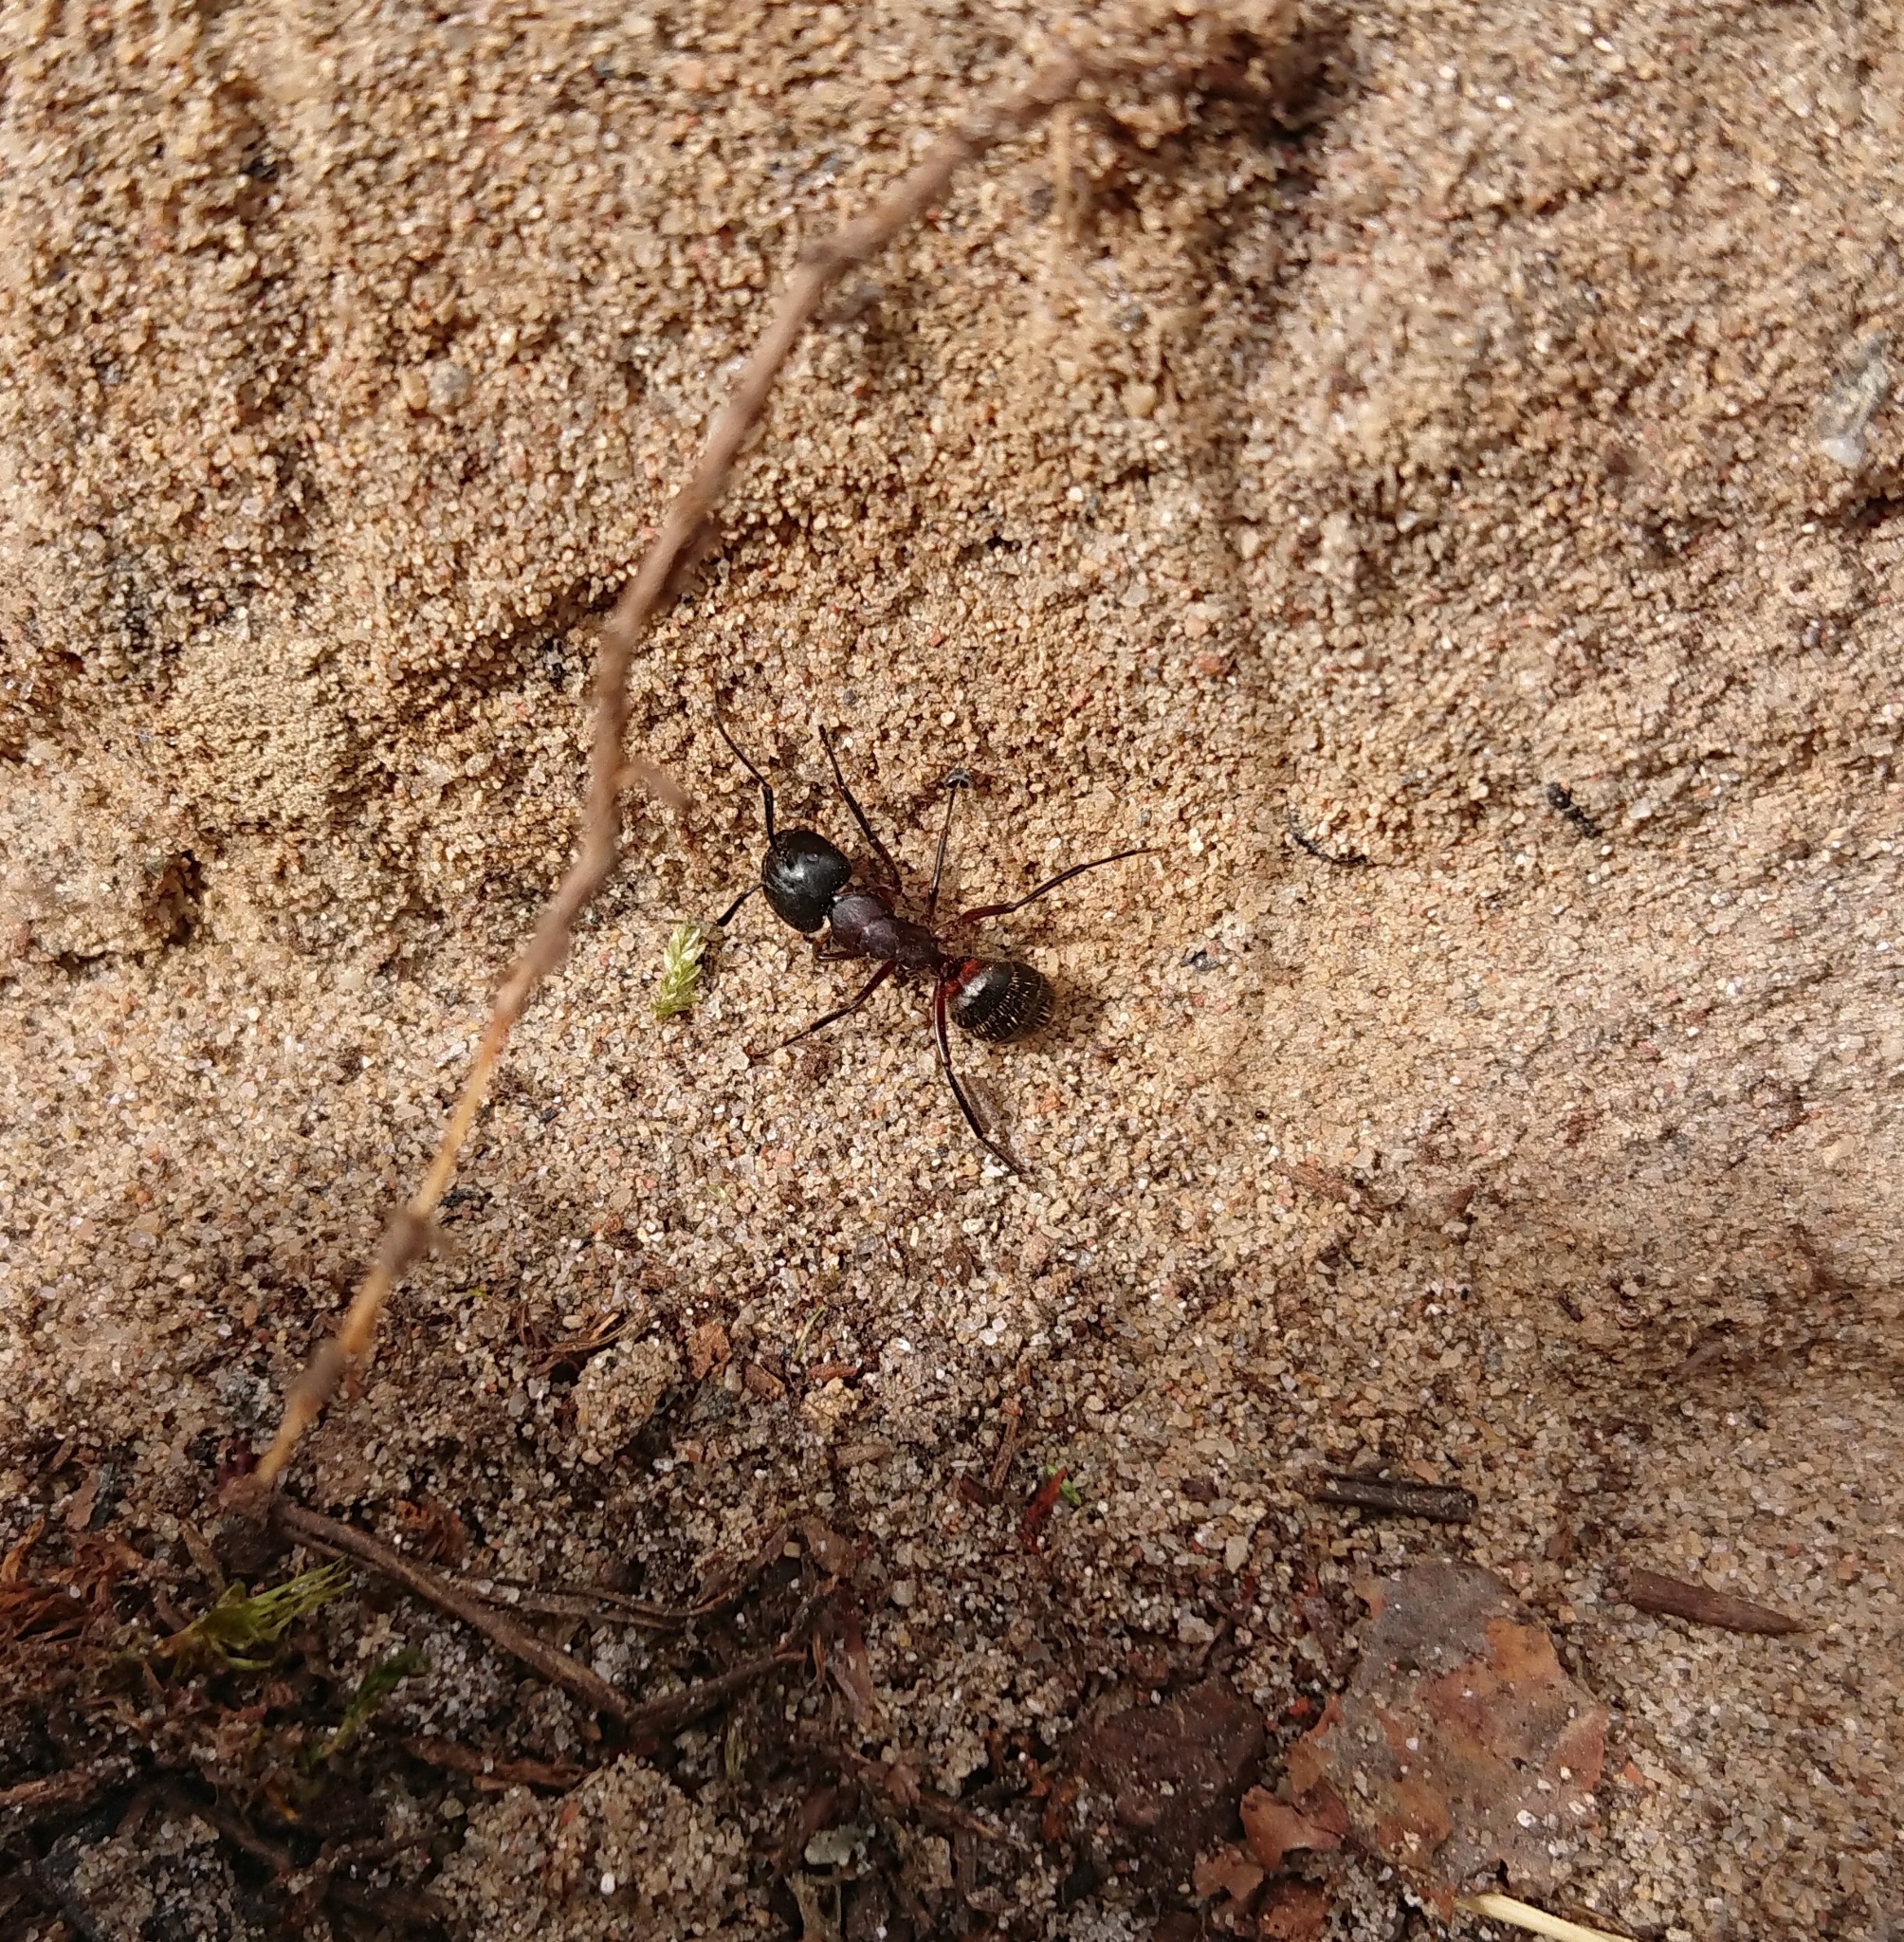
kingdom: Animalia
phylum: Arthropoda
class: Insecta
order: Hymenoptera
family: Formicidae
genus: Camponotus
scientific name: Camponotus ligniperdus
